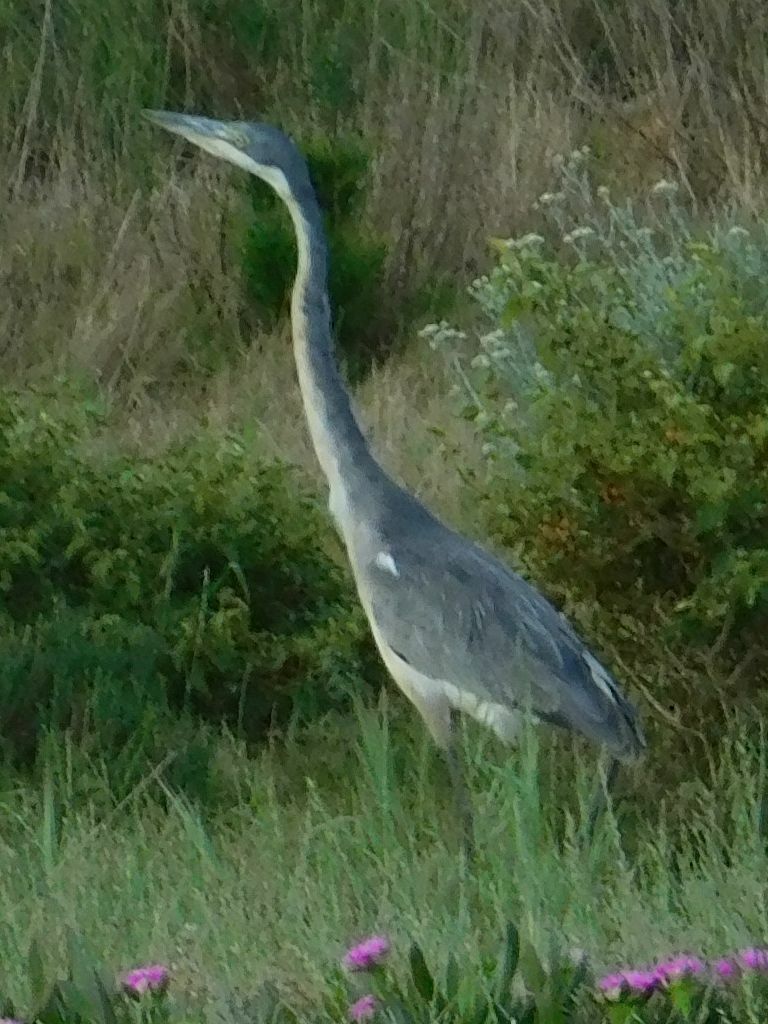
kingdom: Animalia
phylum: Chordata
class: Aves
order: Pelecaniformes
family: Ardeidae
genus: Ardea
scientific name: Ardea melanocephala
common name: Black-headed heron
